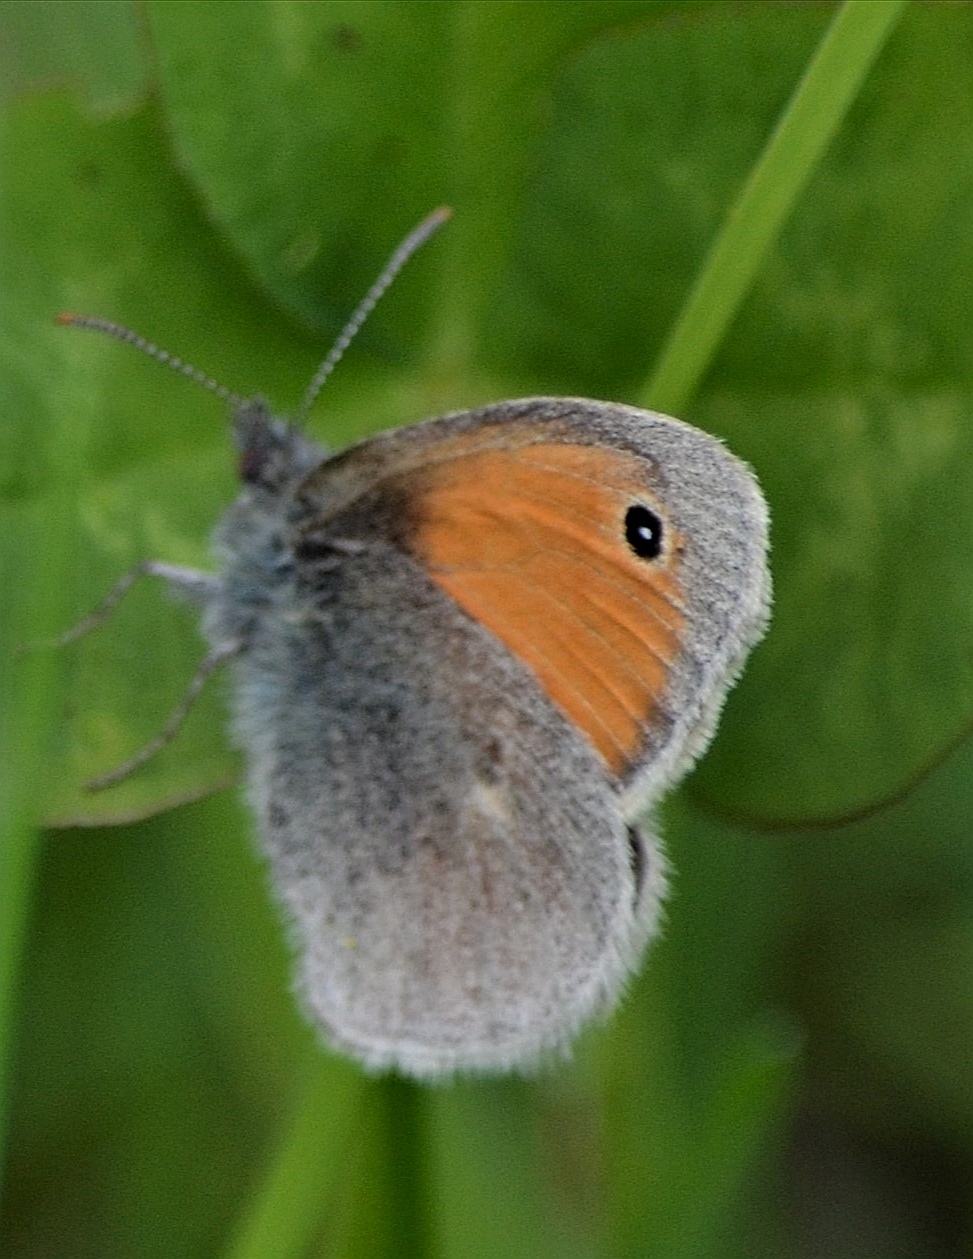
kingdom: Animalia
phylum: Arthropoda
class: Insecta
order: Lepidoptera
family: Nymphalidae
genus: Coenonympha
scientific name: Coenonympha pamphilus
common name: Small heath
